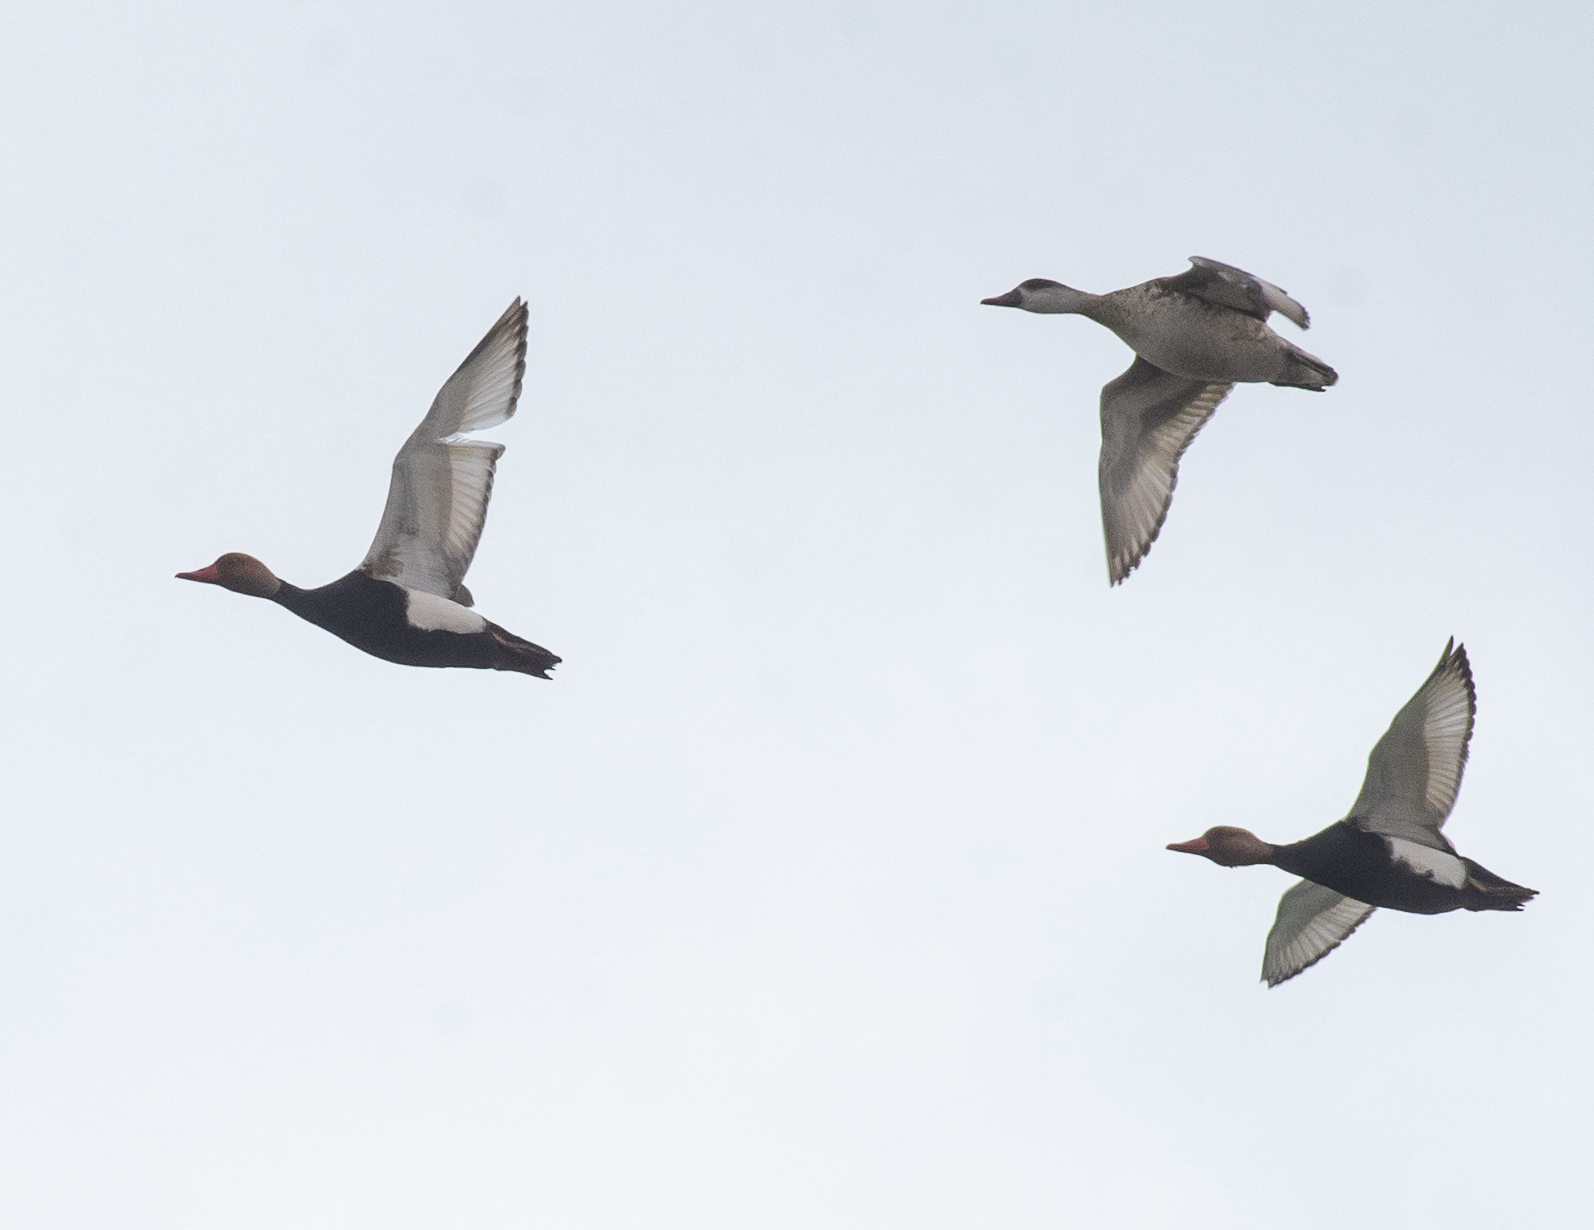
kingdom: Animalia
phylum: Chordata
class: Aves
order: Anseriformes
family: Anatidae
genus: Netta
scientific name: Netta rufina
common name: Red-crested pochard
